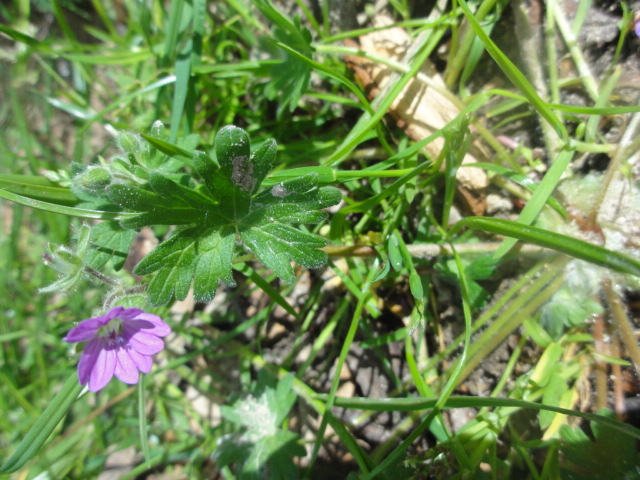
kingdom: Plantae
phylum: Tracheophyta
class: Magnoliopsida
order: Geraniales
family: Geraniaceae
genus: Geranium
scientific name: Geranium molle
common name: Dove's-foot crane's-bill
